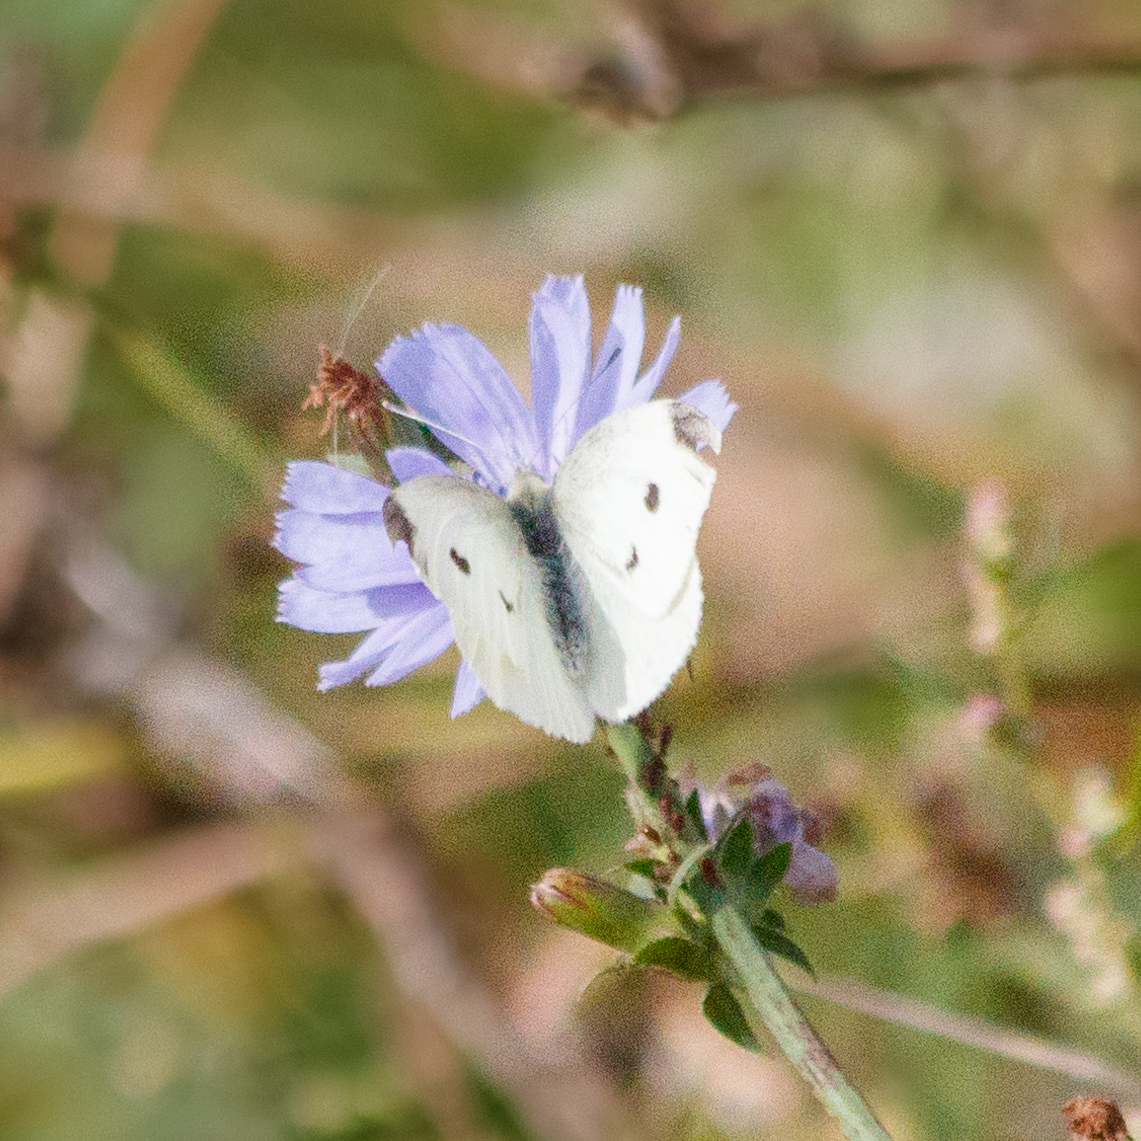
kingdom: Animalia
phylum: Arthropoda
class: Insecta
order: Lepidoptera
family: Pieridae
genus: Pieris
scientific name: Pieris rapae
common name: Small white
